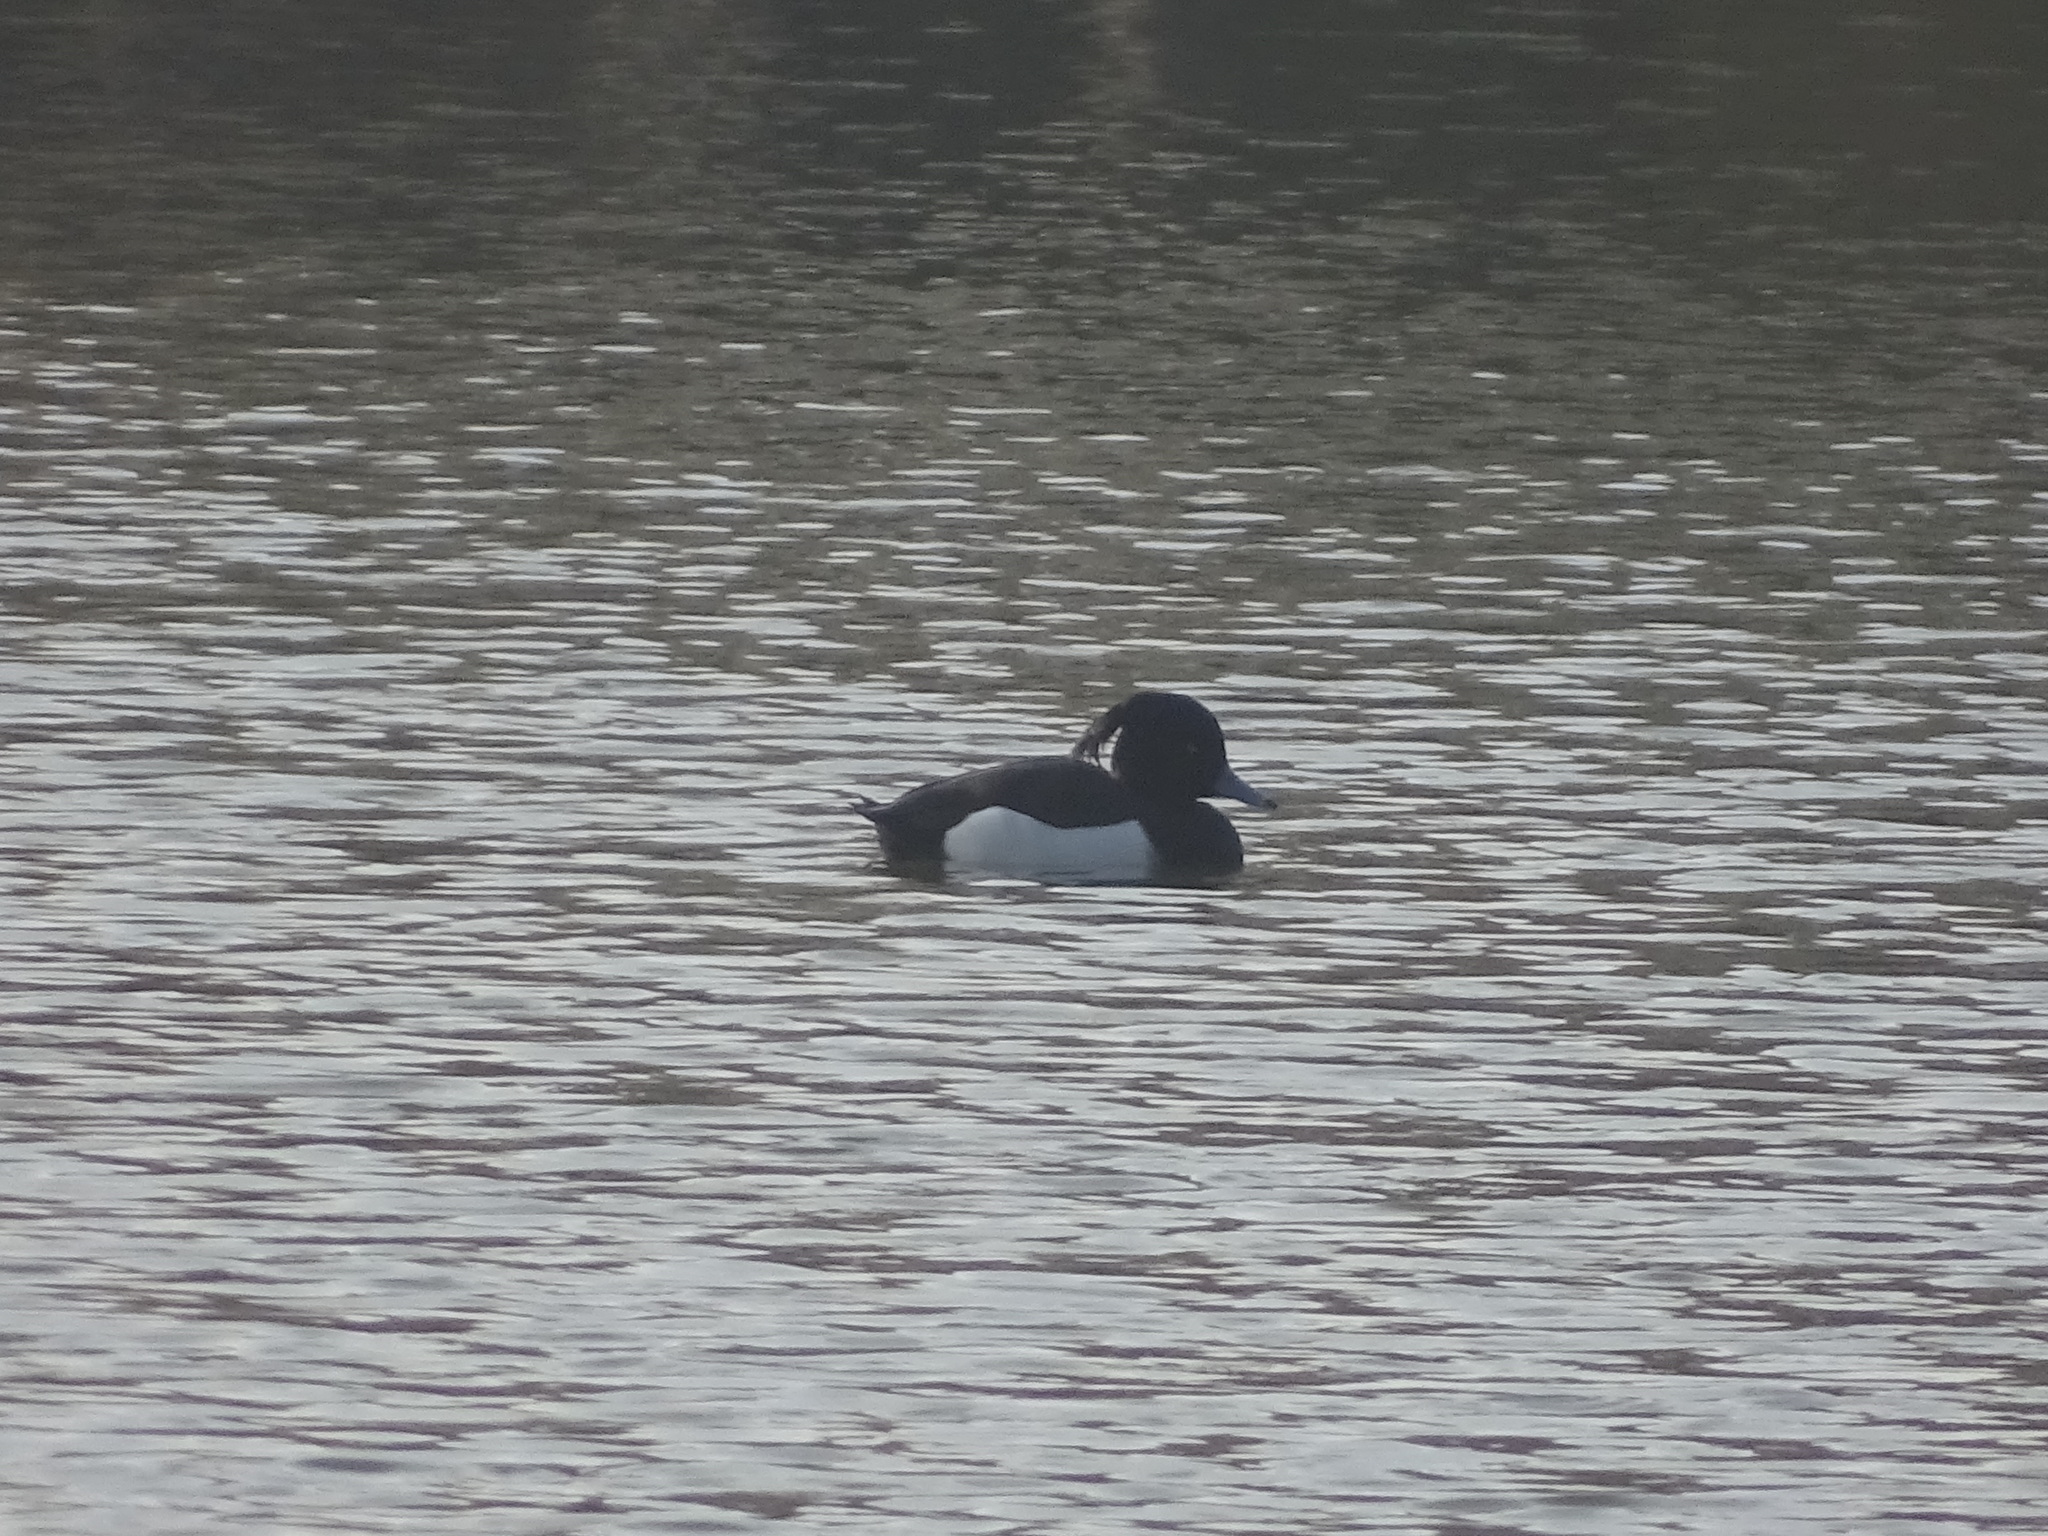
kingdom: Animalia
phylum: Chordata
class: Aves
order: Anseriformes
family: Anatidae
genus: Aythya
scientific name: Aythya fuligula
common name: Tufted duck
